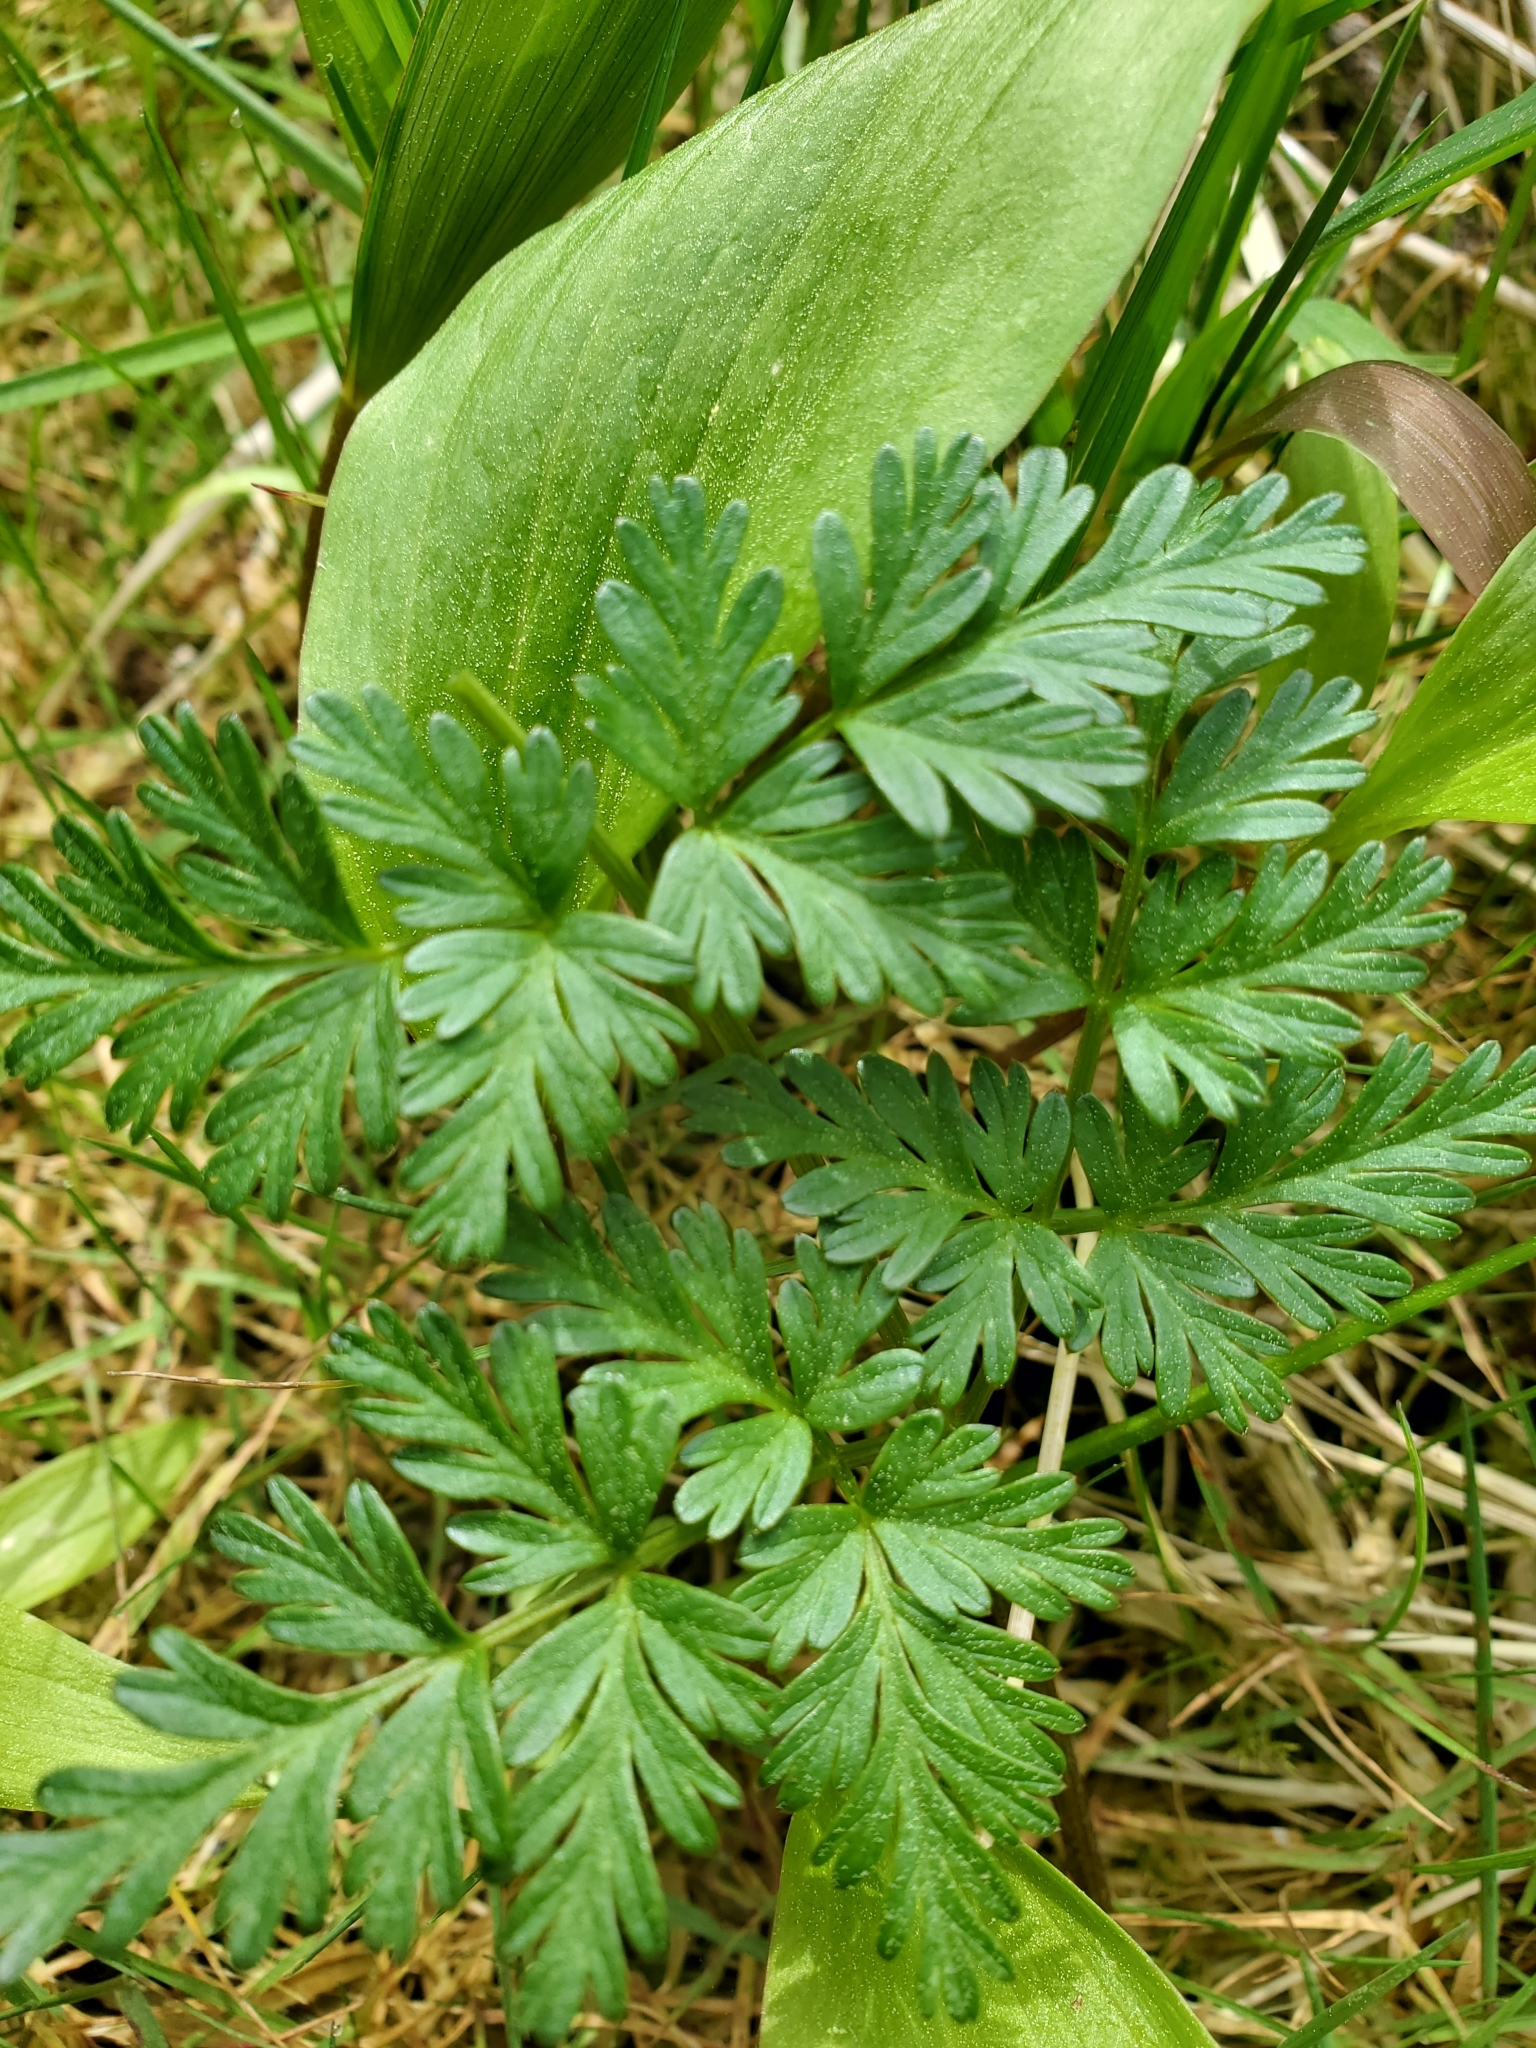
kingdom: Plantae
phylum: Tracheophyta
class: Magnoliopsida
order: Apiales
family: Apiaceae
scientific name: Apiaceae
